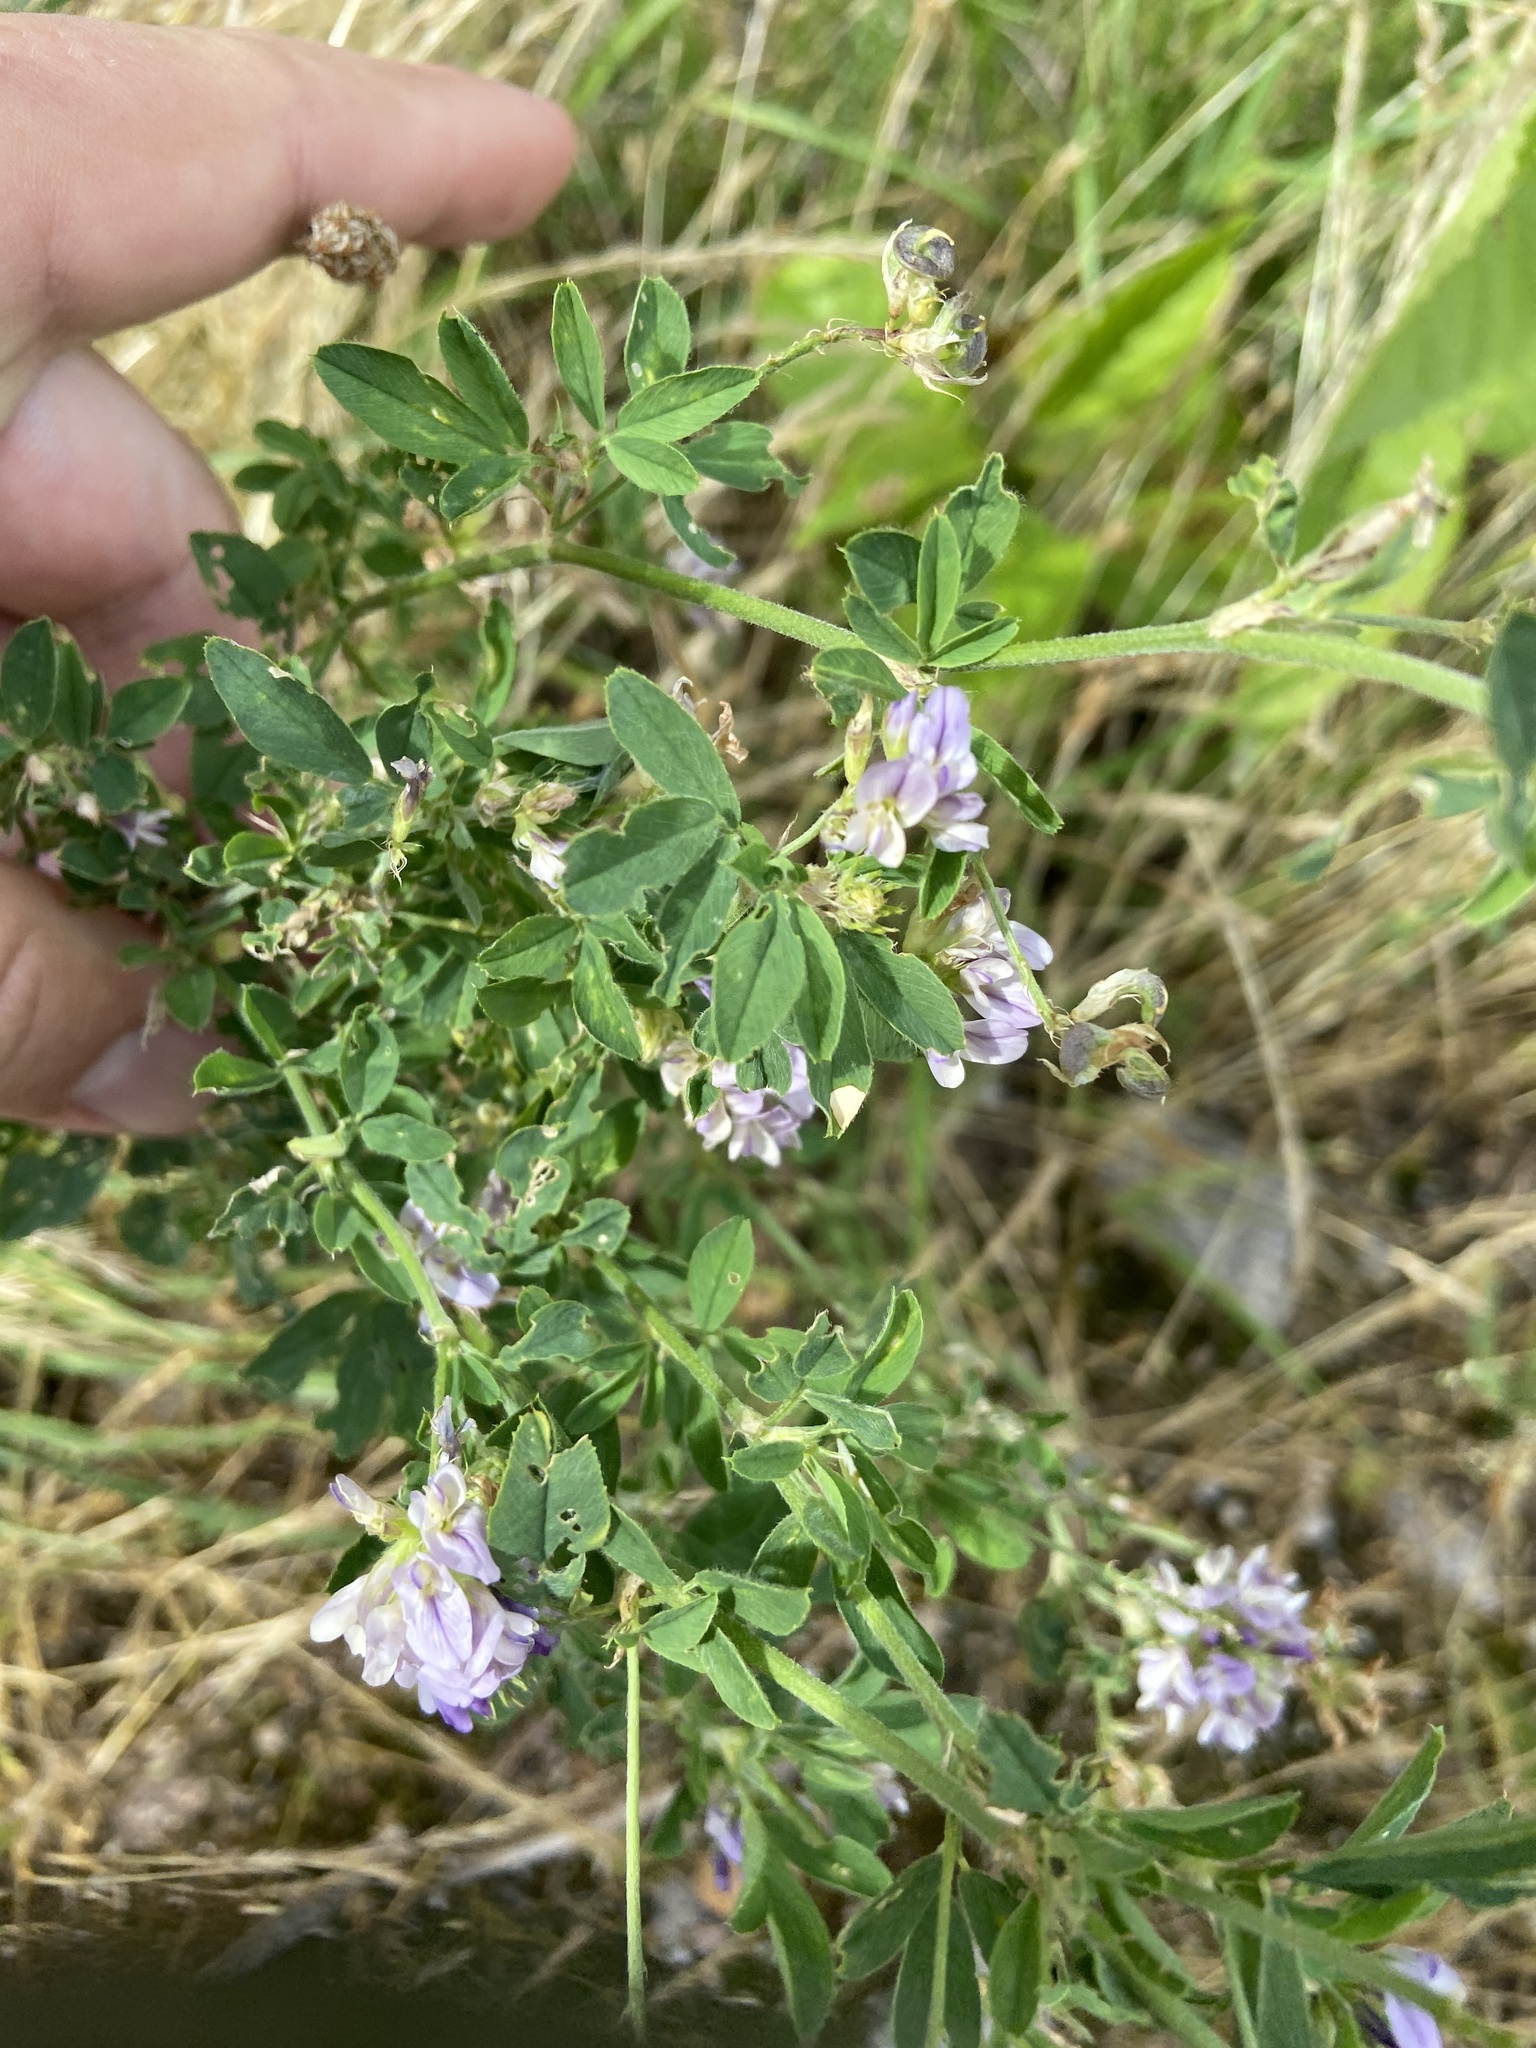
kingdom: Plantae
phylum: Tracheophyta
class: Magnoliopsida
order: Fabales
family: Fabaceae
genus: Medicago
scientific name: Medicago varia
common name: Sand lucerne
